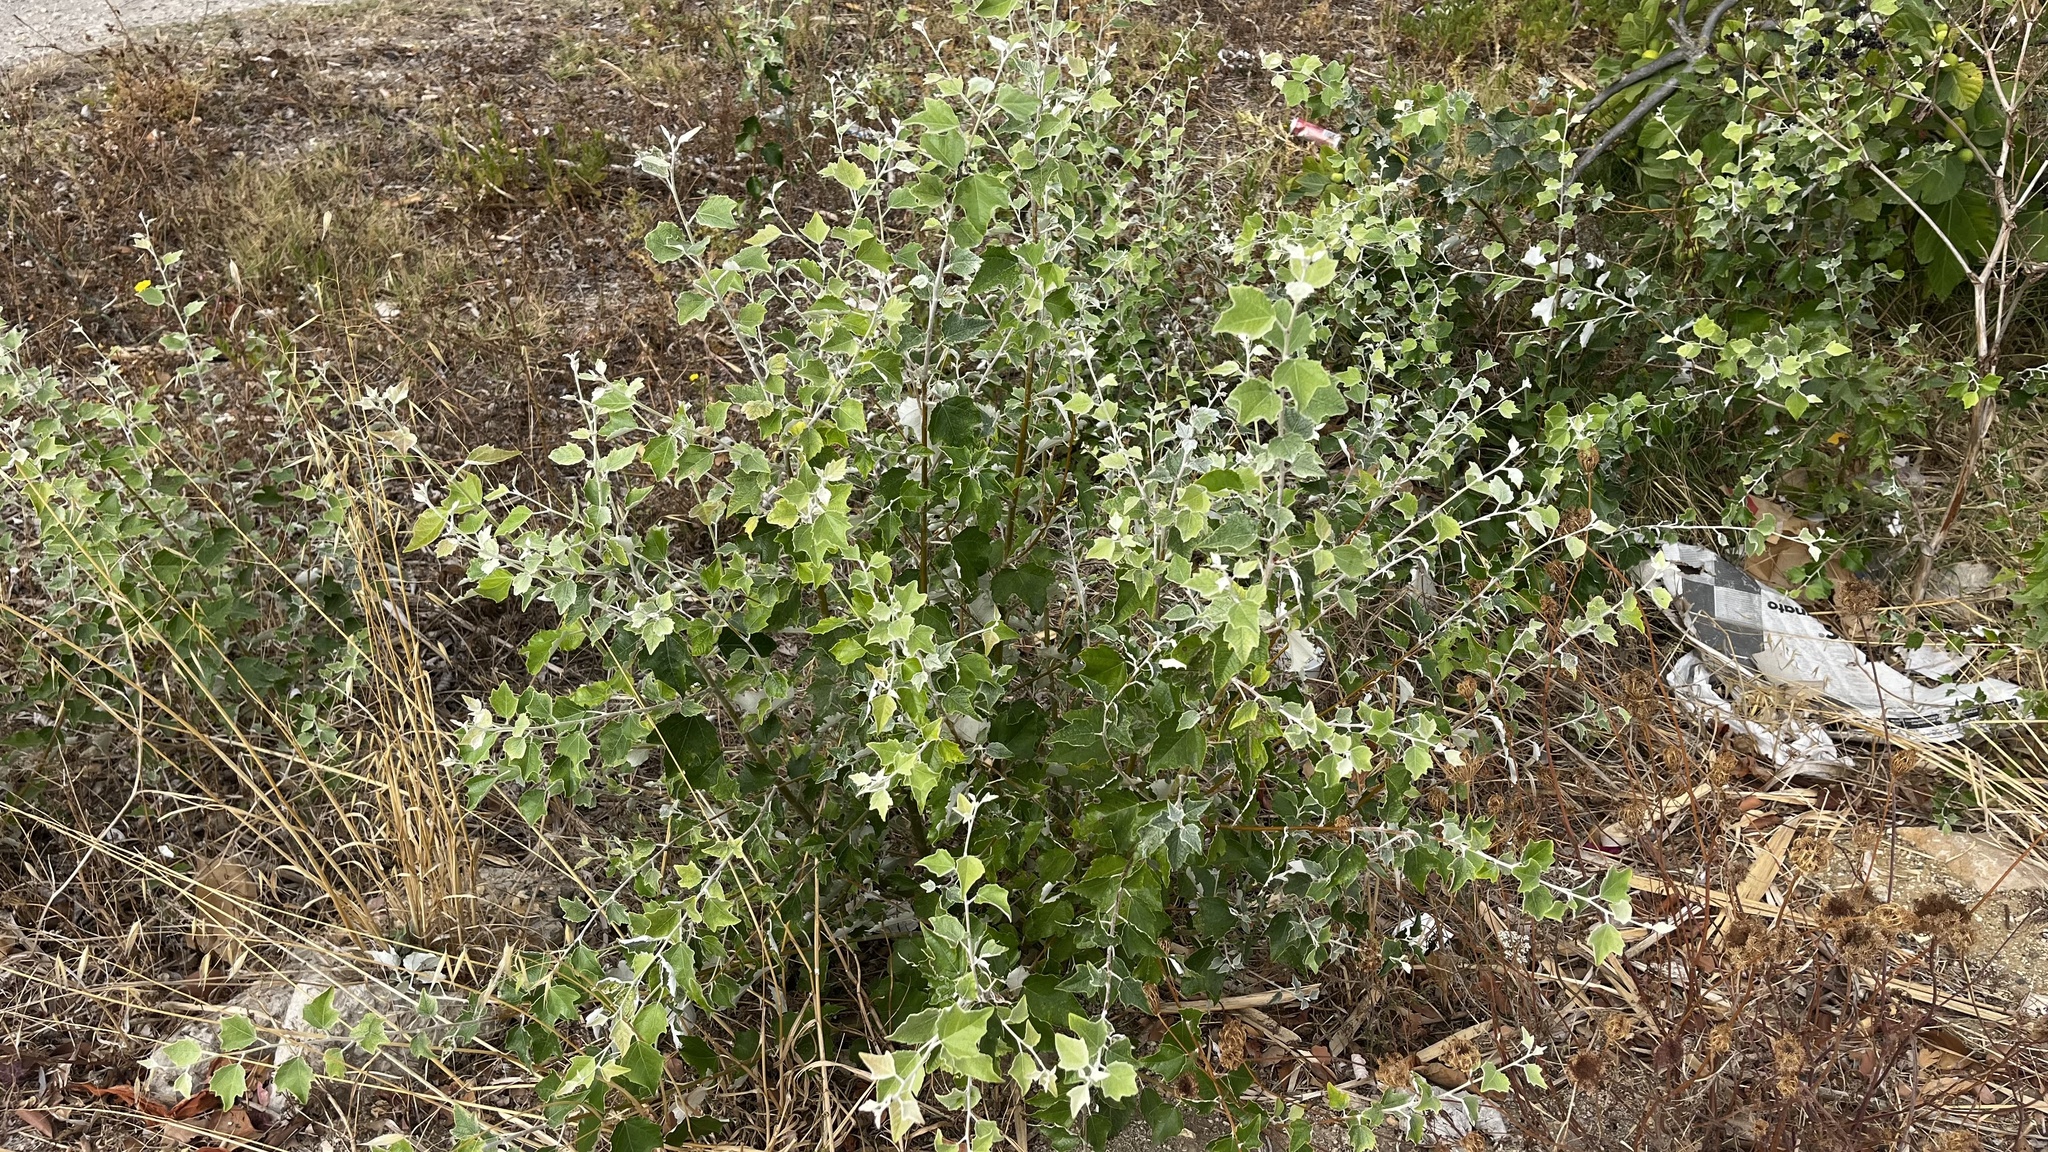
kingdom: Plantae
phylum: Tracheophyta
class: Magnoliopsida
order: Malpighiales
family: Salicaceae
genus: Populus
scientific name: Populus alba
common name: White poplar
